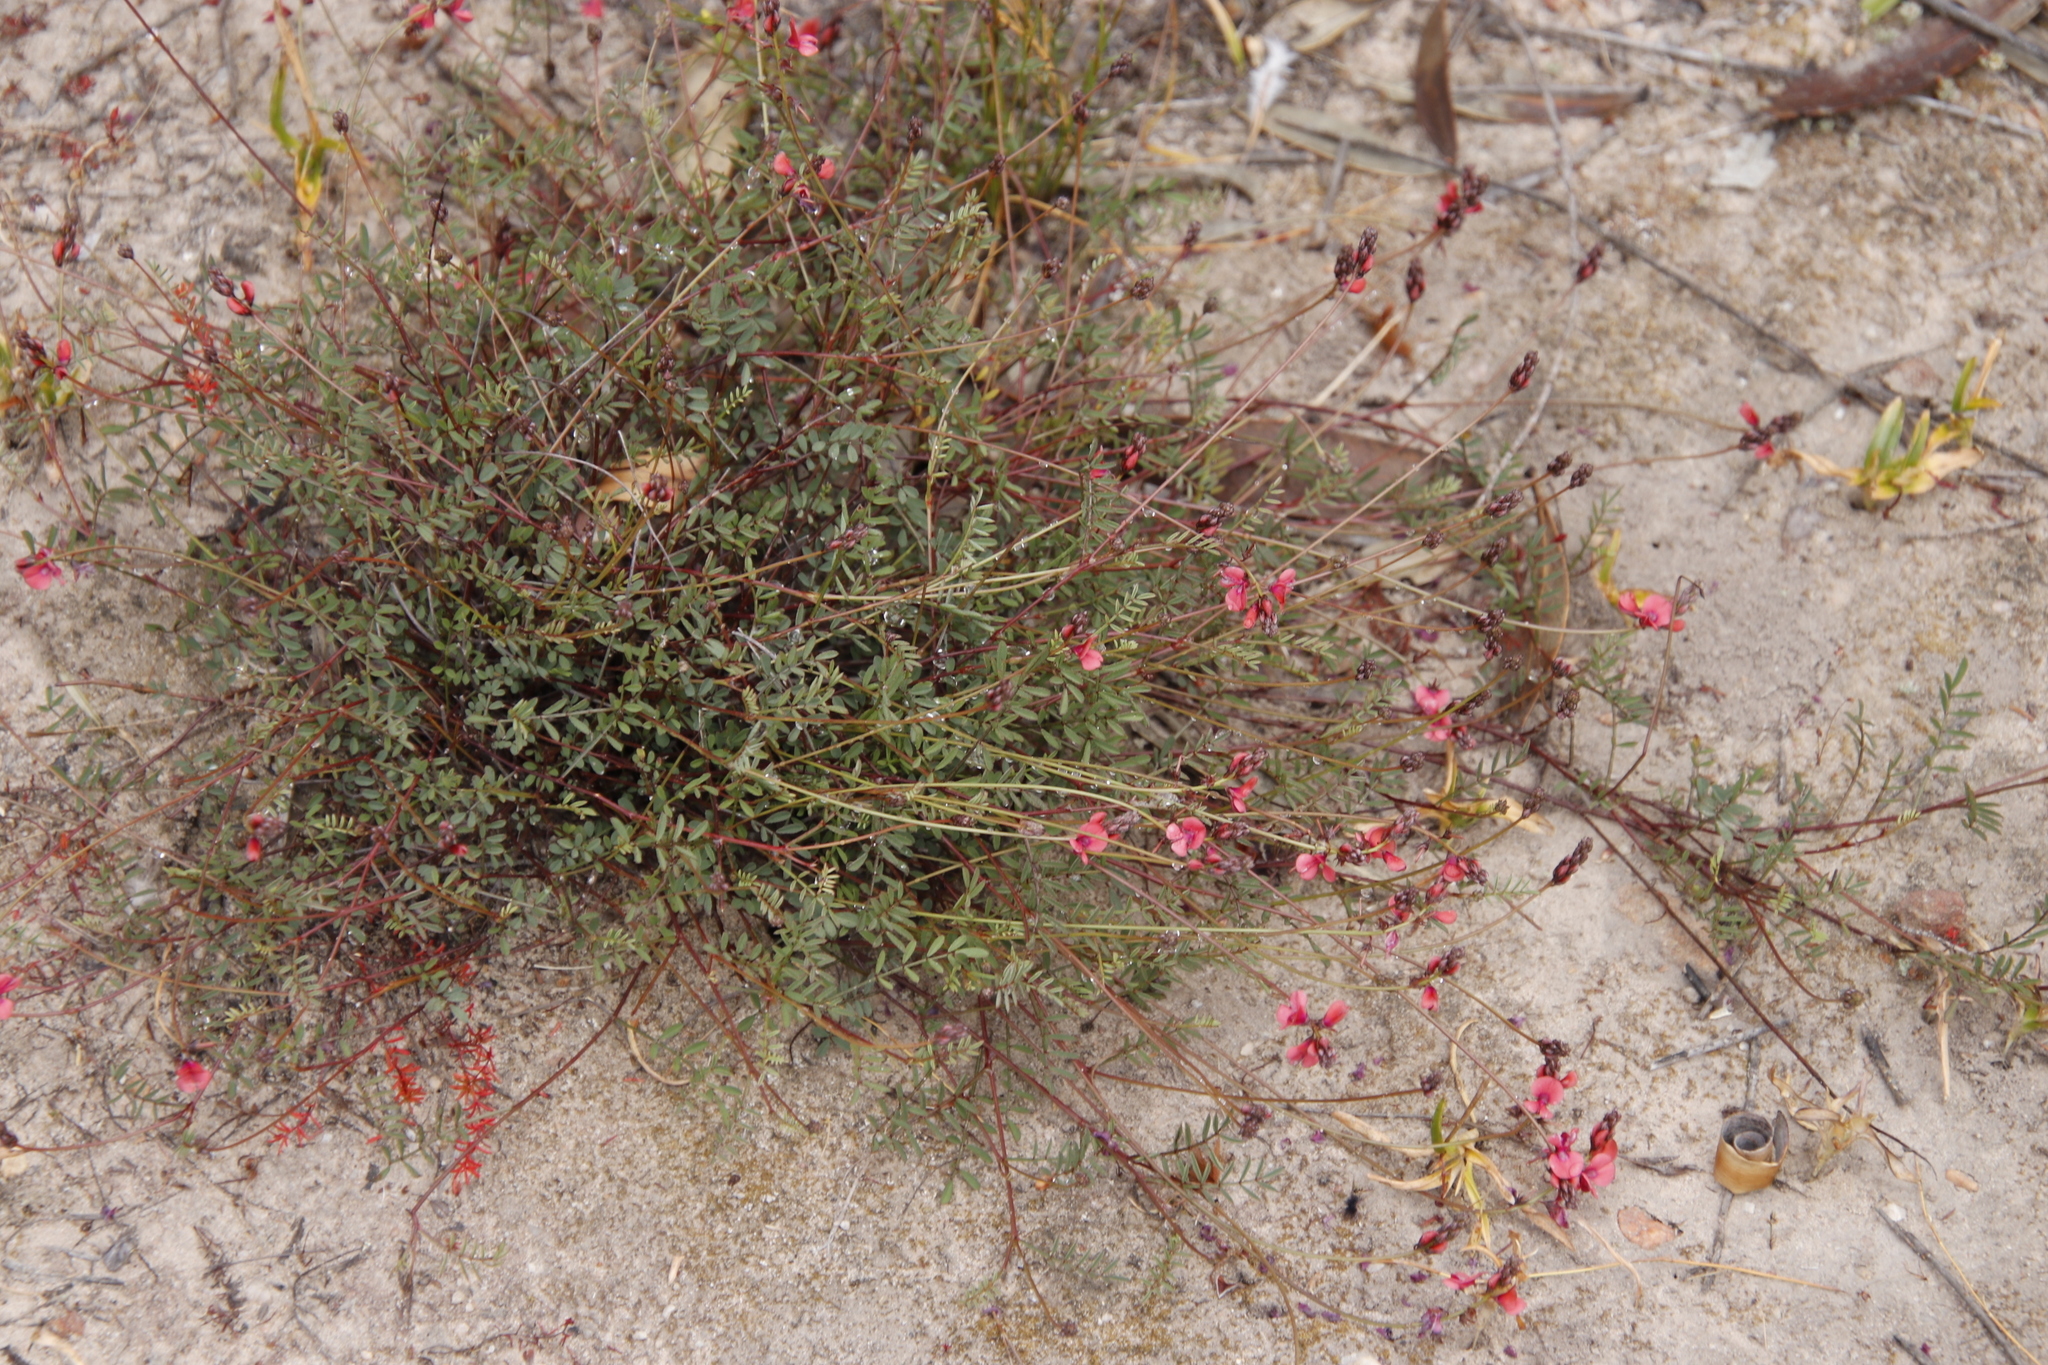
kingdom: Plantae
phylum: Tracheophyta
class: Magnoliopsida
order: Fabales
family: Fabaceae
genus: Indigofera
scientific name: Indigofera humifusa
